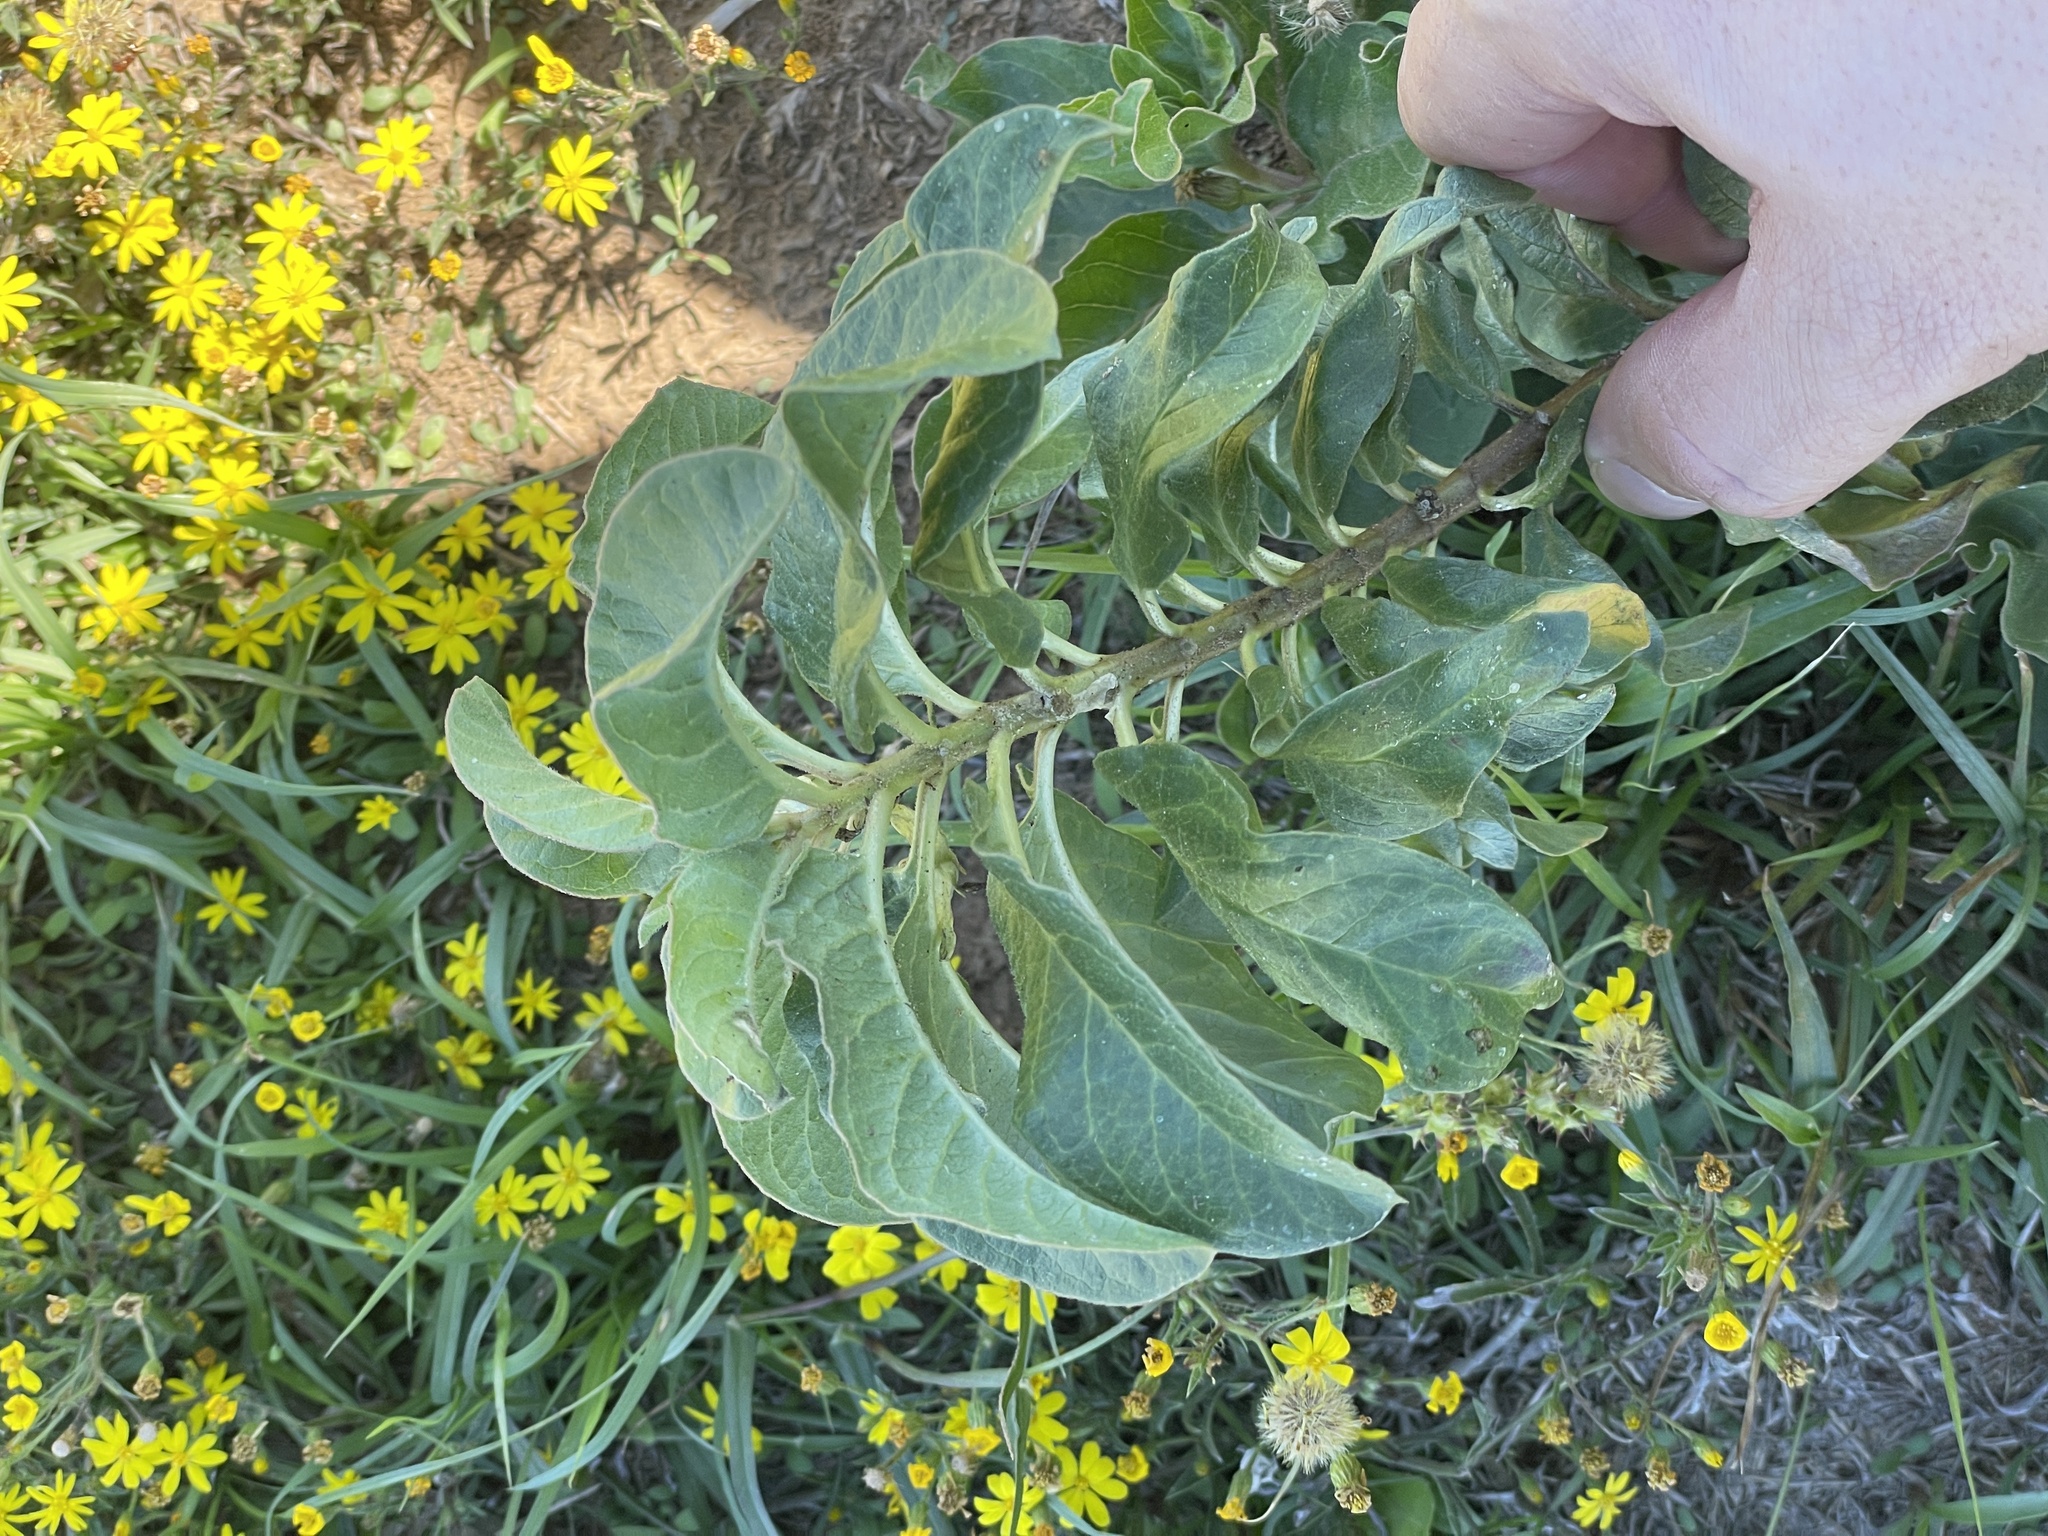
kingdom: Plantae
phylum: Tracheophyta
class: Magnoliopsida
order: Gentianales
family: Apocynaceae
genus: Asclepias
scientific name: Asclepias oenotheroides
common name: Zizotes milkweed
